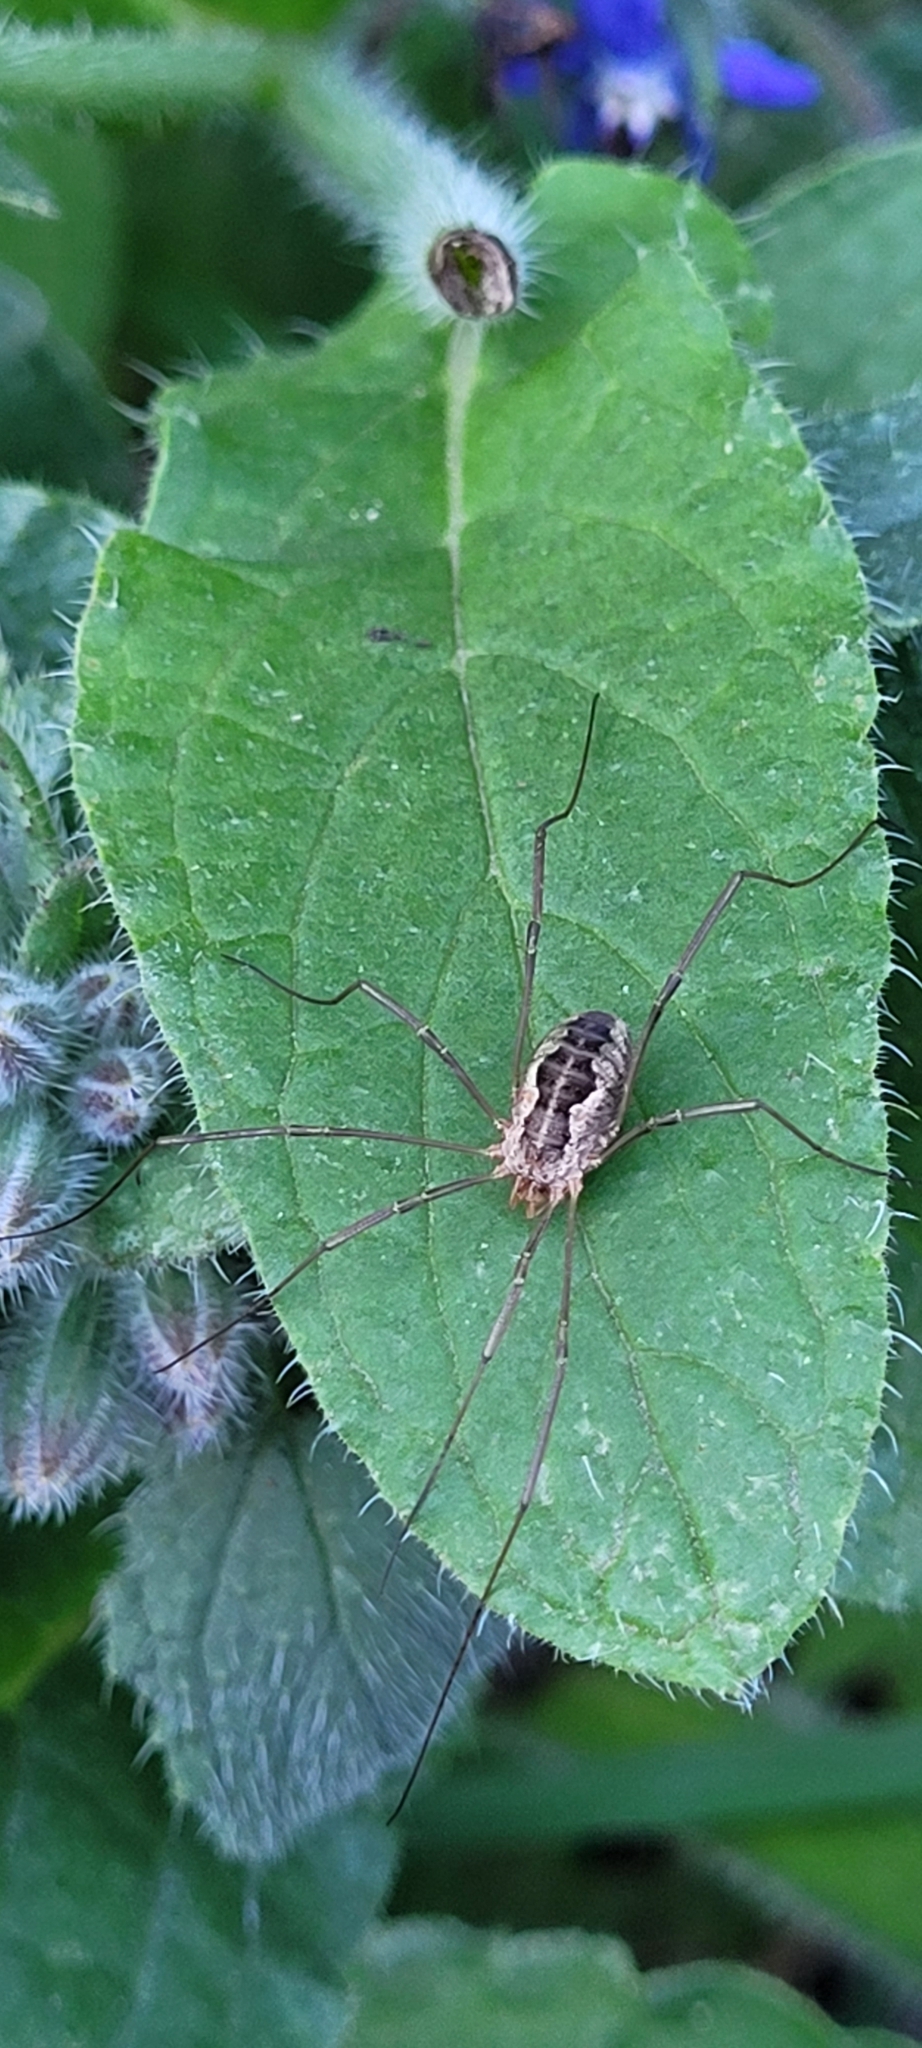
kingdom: Animalia
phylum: Arthropoda
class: Arachnida
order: Opiliones
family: Phalangiidae
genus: Phalangium
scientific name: Phalangium opilio
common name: Daddy longleg
